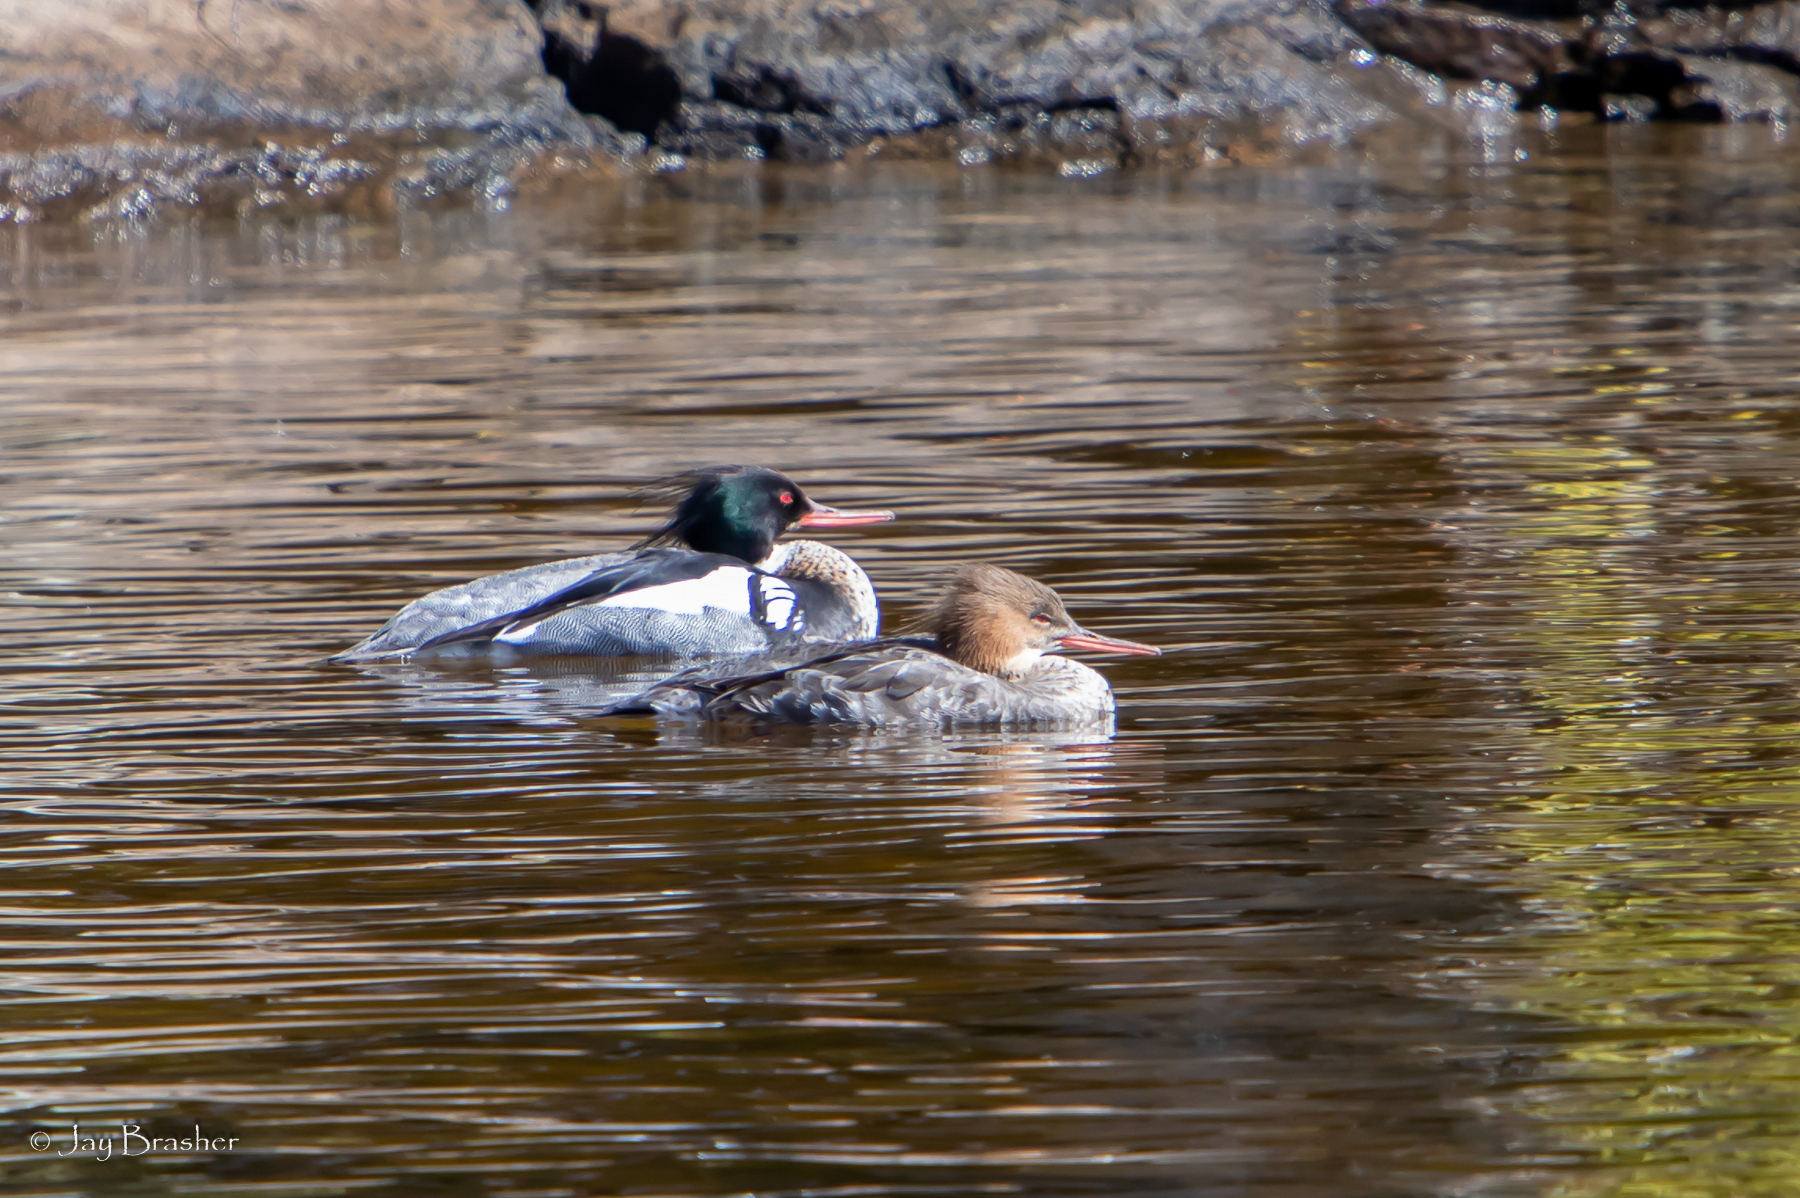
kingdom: Animalia
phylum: Chordata
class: Aves
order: Anseriformes
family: Anatidae
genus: Mergus
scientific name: Mergus serrator
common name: Red-breasted merganser
